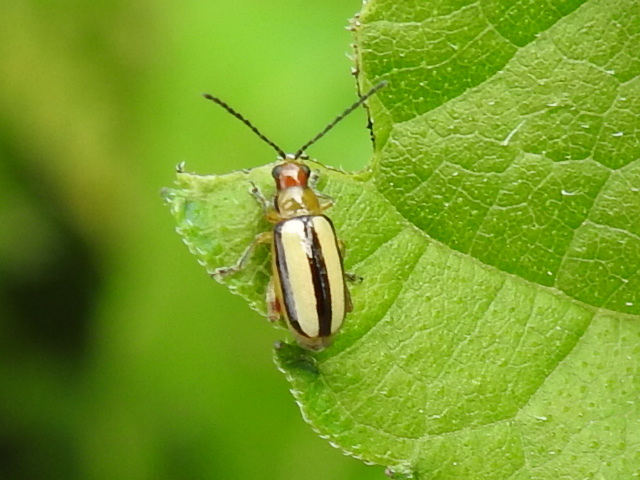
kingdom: Animalia
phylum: Arthropoda
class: Insecta
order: Coleoptera
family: Chrysomelidae
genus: Systena
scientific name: Systena gracilenta
